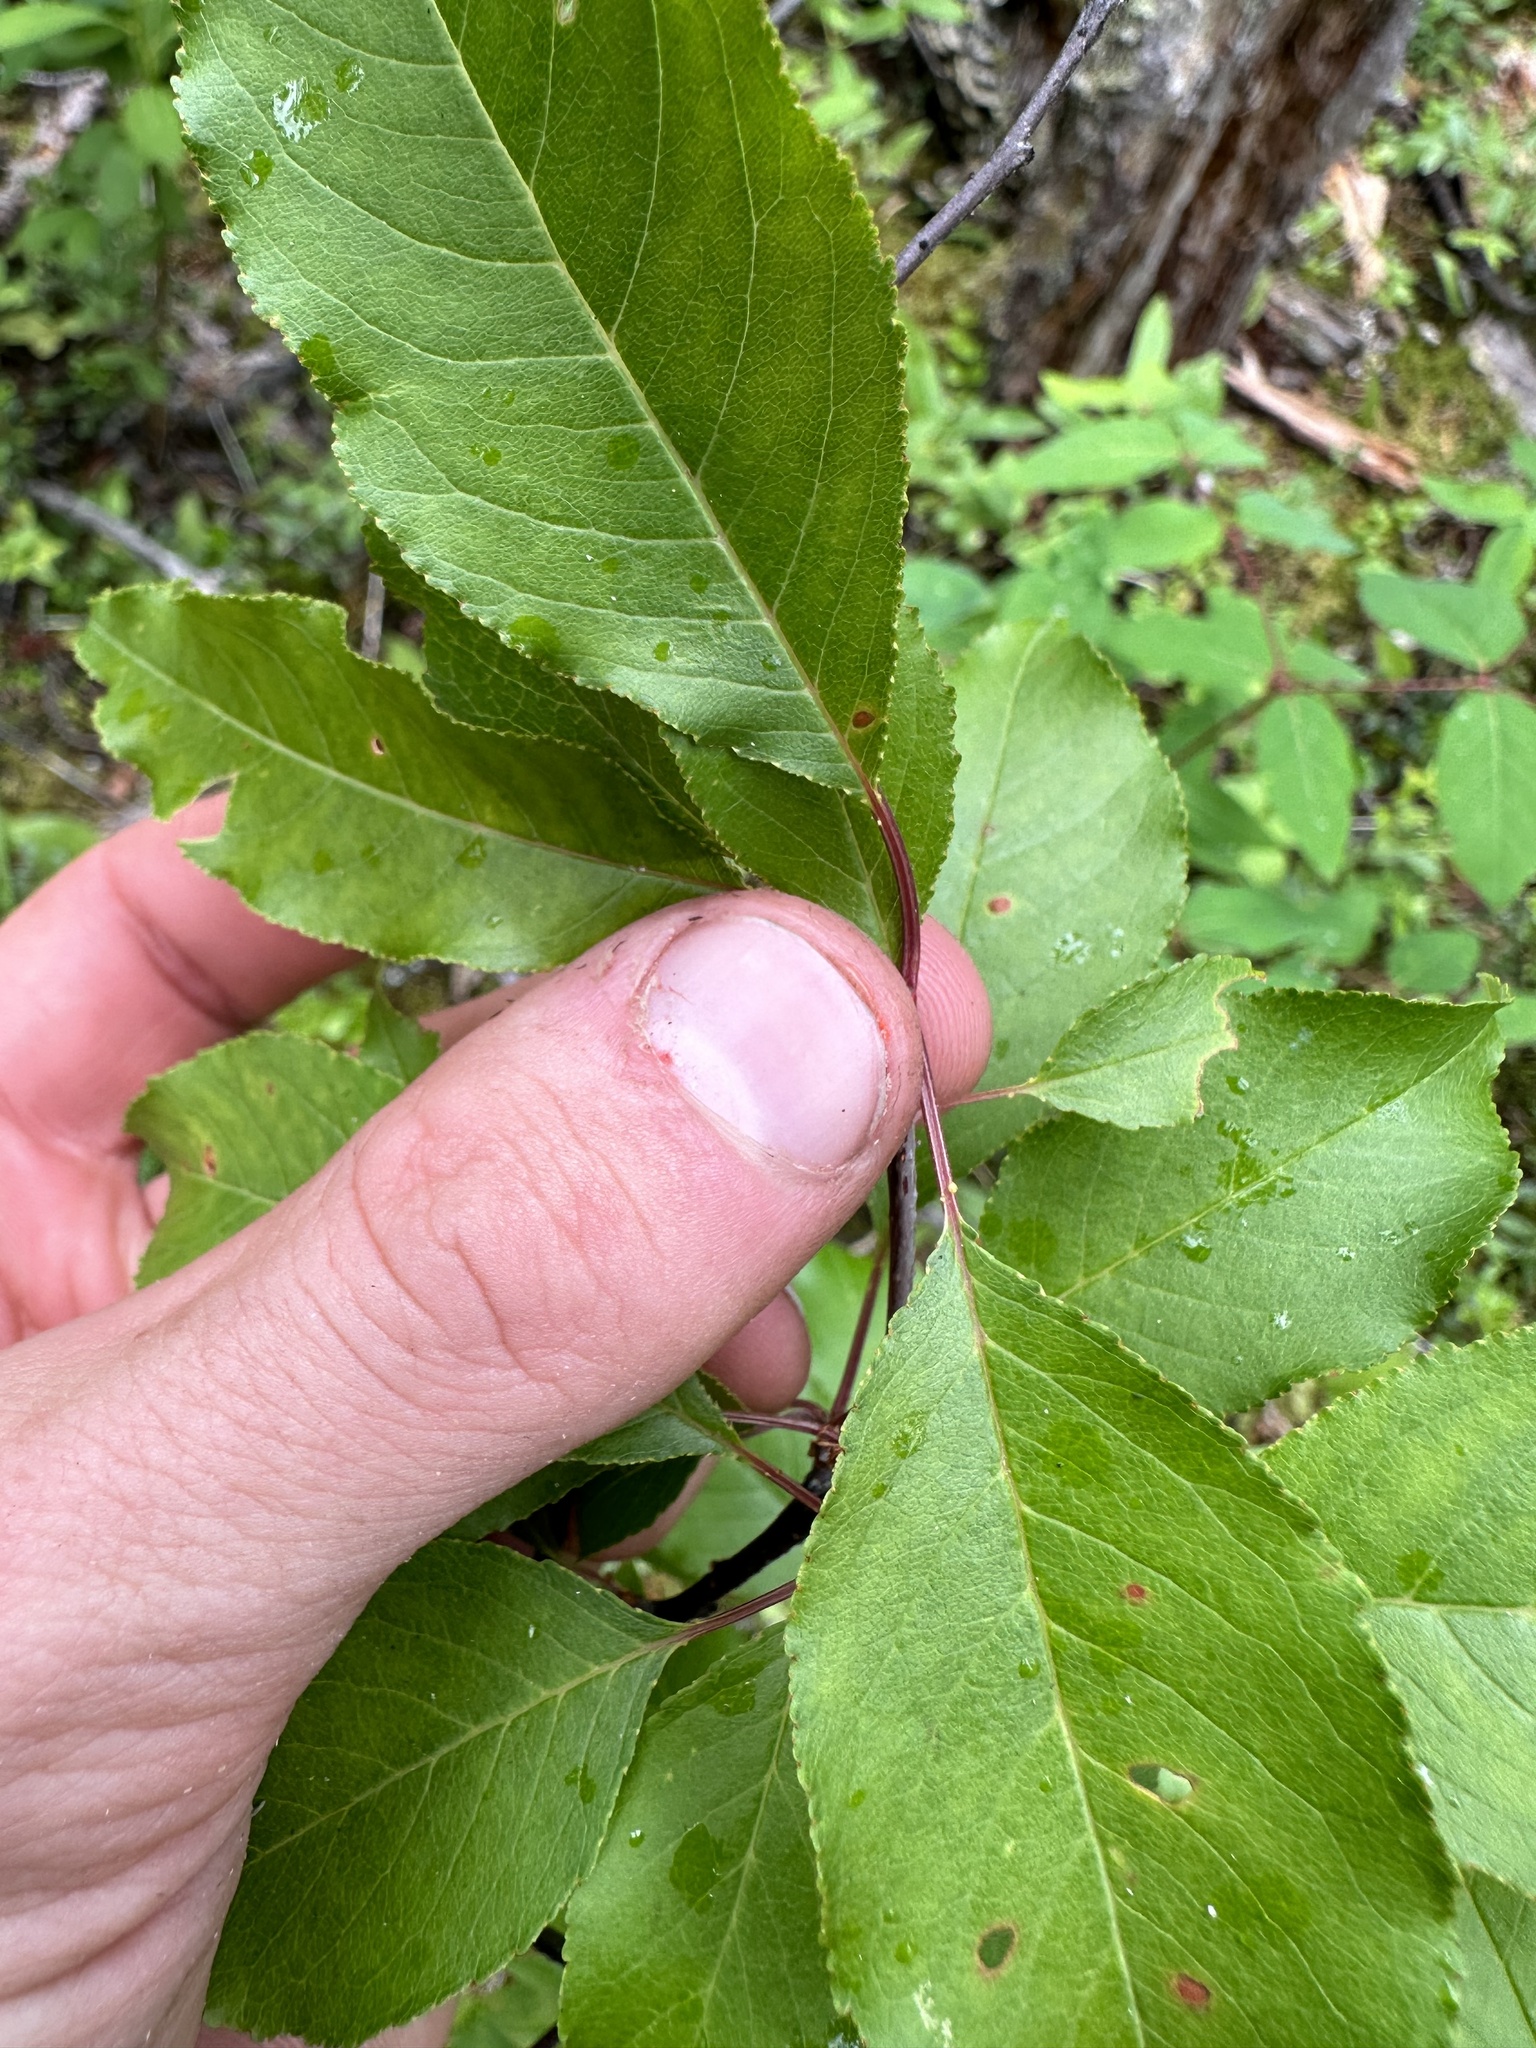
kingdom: Plantae
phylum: Tracheophyta
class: Magnoliopsida
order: Rosales
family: Rosaceae
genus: Prunus
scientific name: Prunus pensylvanica
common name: Pin cherry
